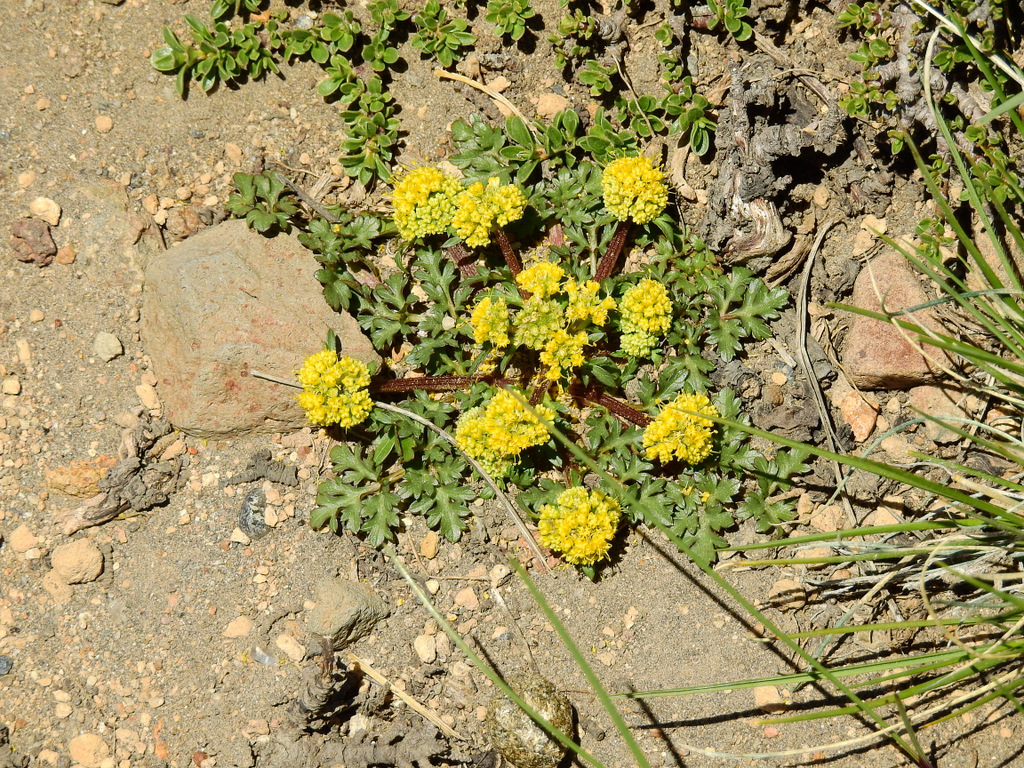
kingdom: Plantae
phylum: Tracheophyta
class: Magnoliopsida
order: Apiales
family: Apiaceae
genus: Sanicula
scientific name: Sanicula graveolens
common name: Sierra sanicle
